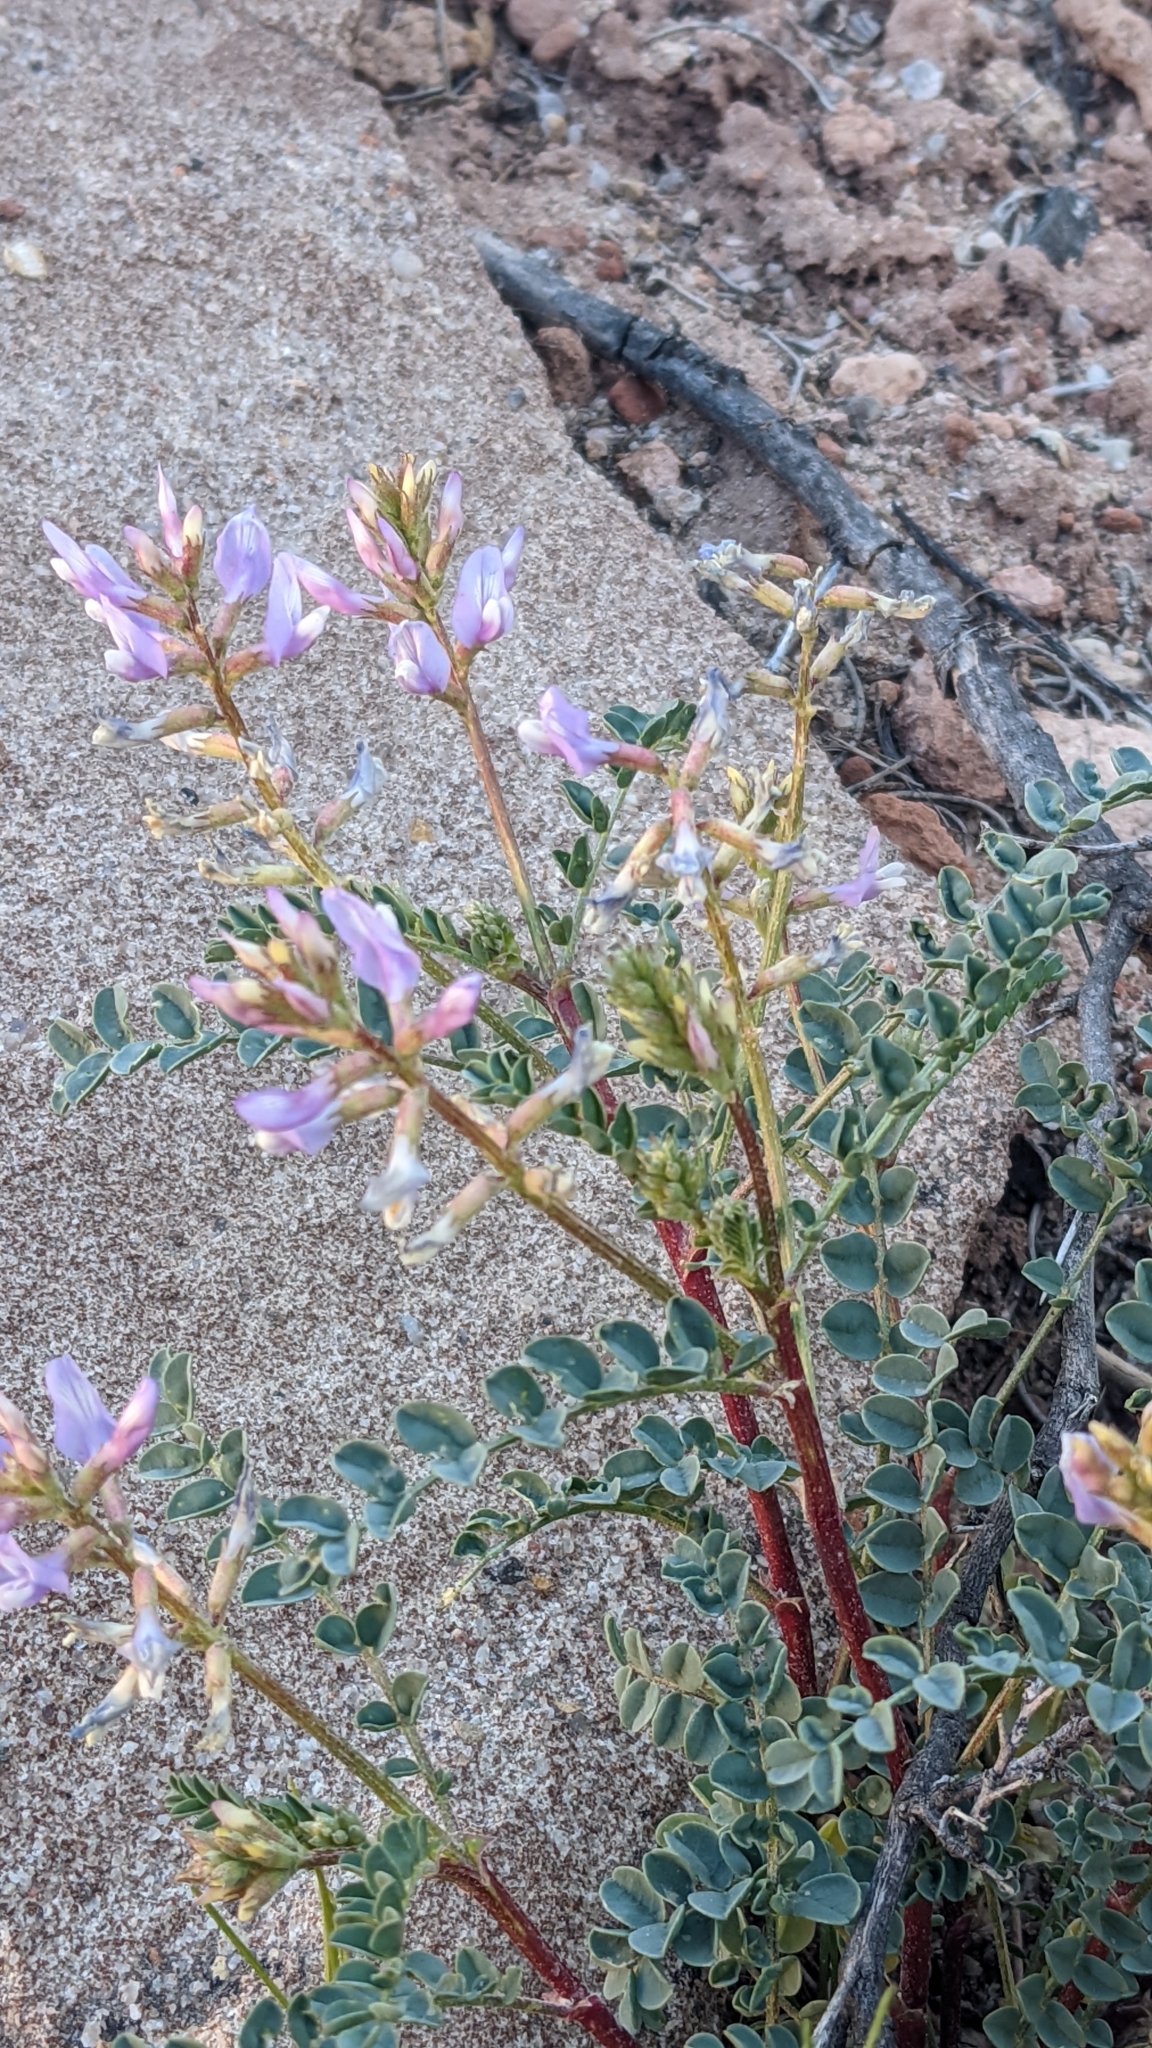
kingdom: Plantae
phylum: Tracheophyta
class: Magnoliopsida
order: Fabales
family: Fabaceae
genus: Astragalus
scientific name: Astragalus lentiginosus
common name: Freckled milkvetch
